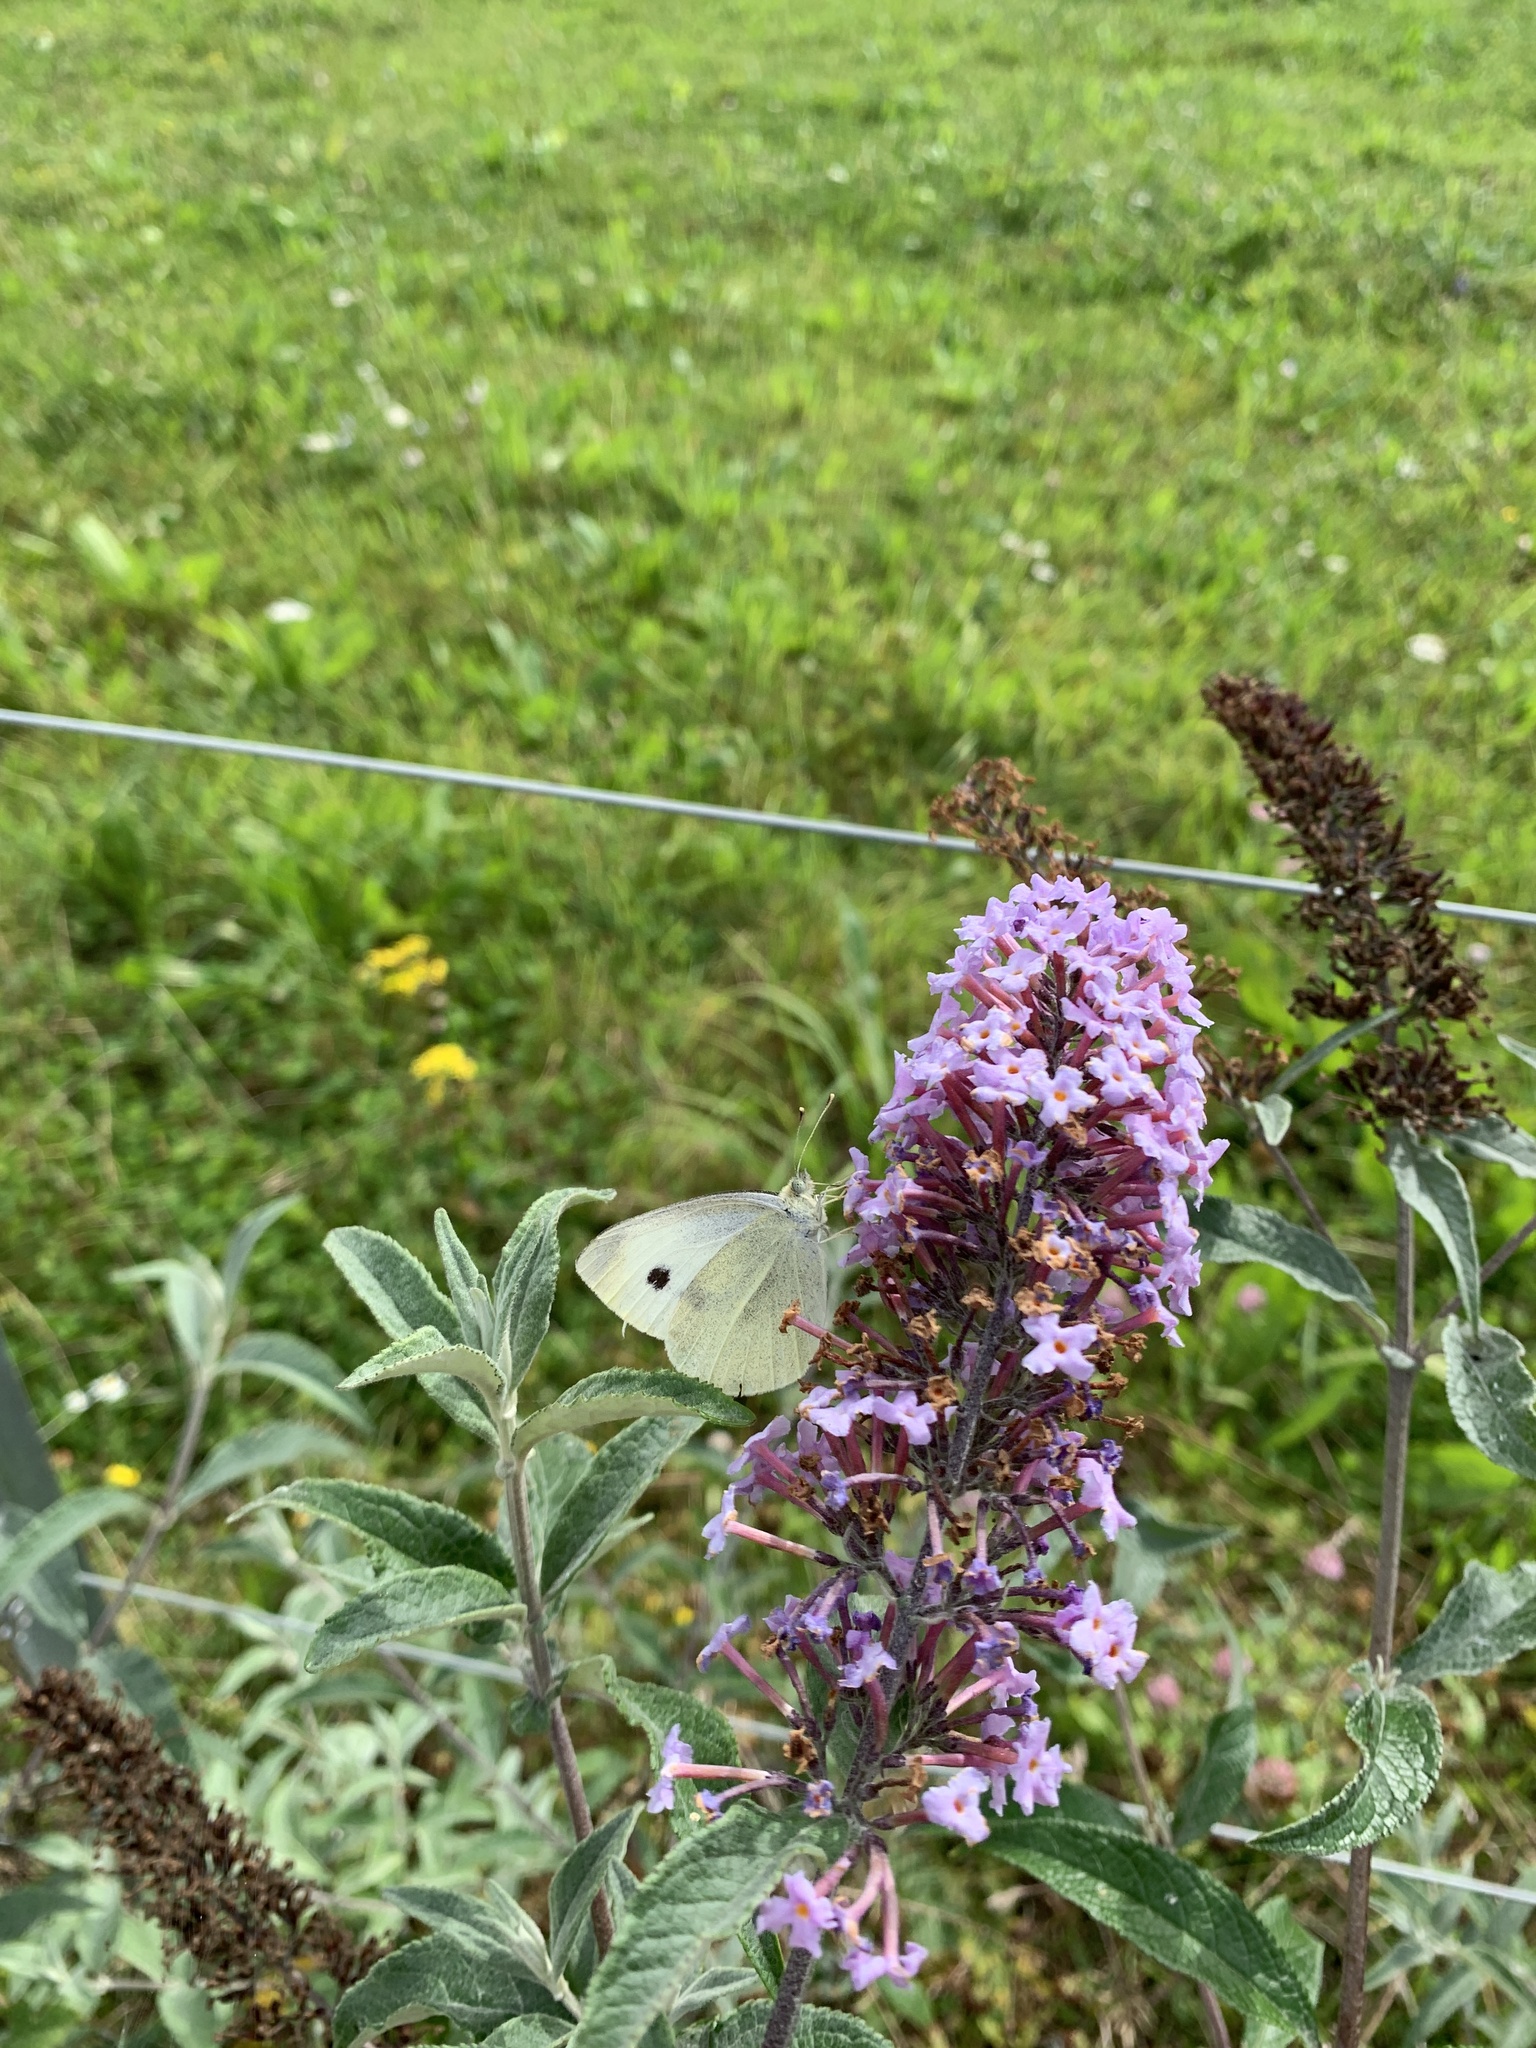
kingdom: Animalia
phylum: Arthropoda
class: Insecta
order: Lepidoptera
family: Pieridae
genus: Pieris
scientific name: Pieris rapae
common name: Small white
